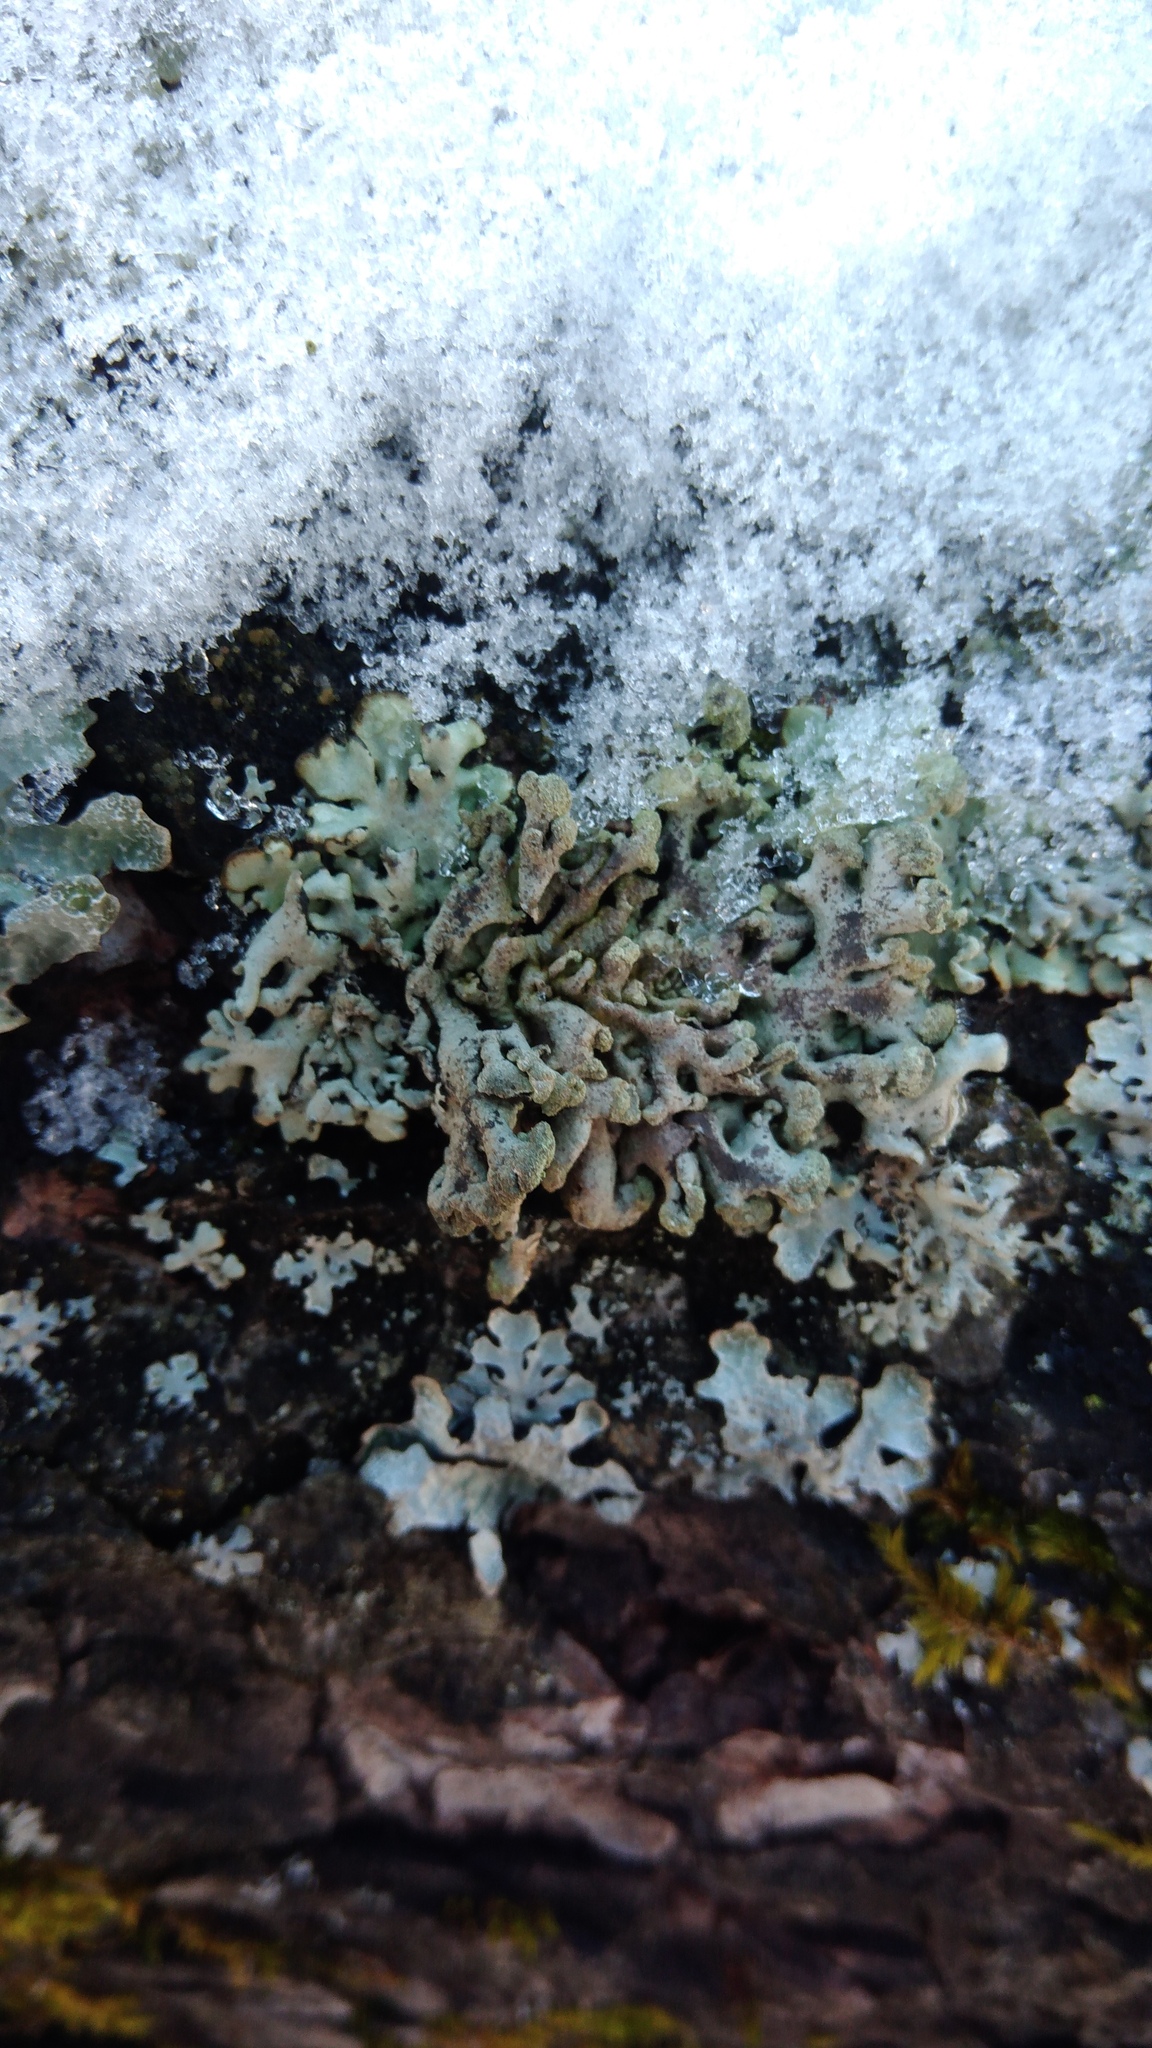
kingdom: Fungi
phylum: Ascomycota
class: Lecanoromycetes
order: Lecanorales
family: Parmeliaceae
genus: Hypogymnia
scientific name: Hypogymnia tubulosa
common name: Powder-headed tube lichen
